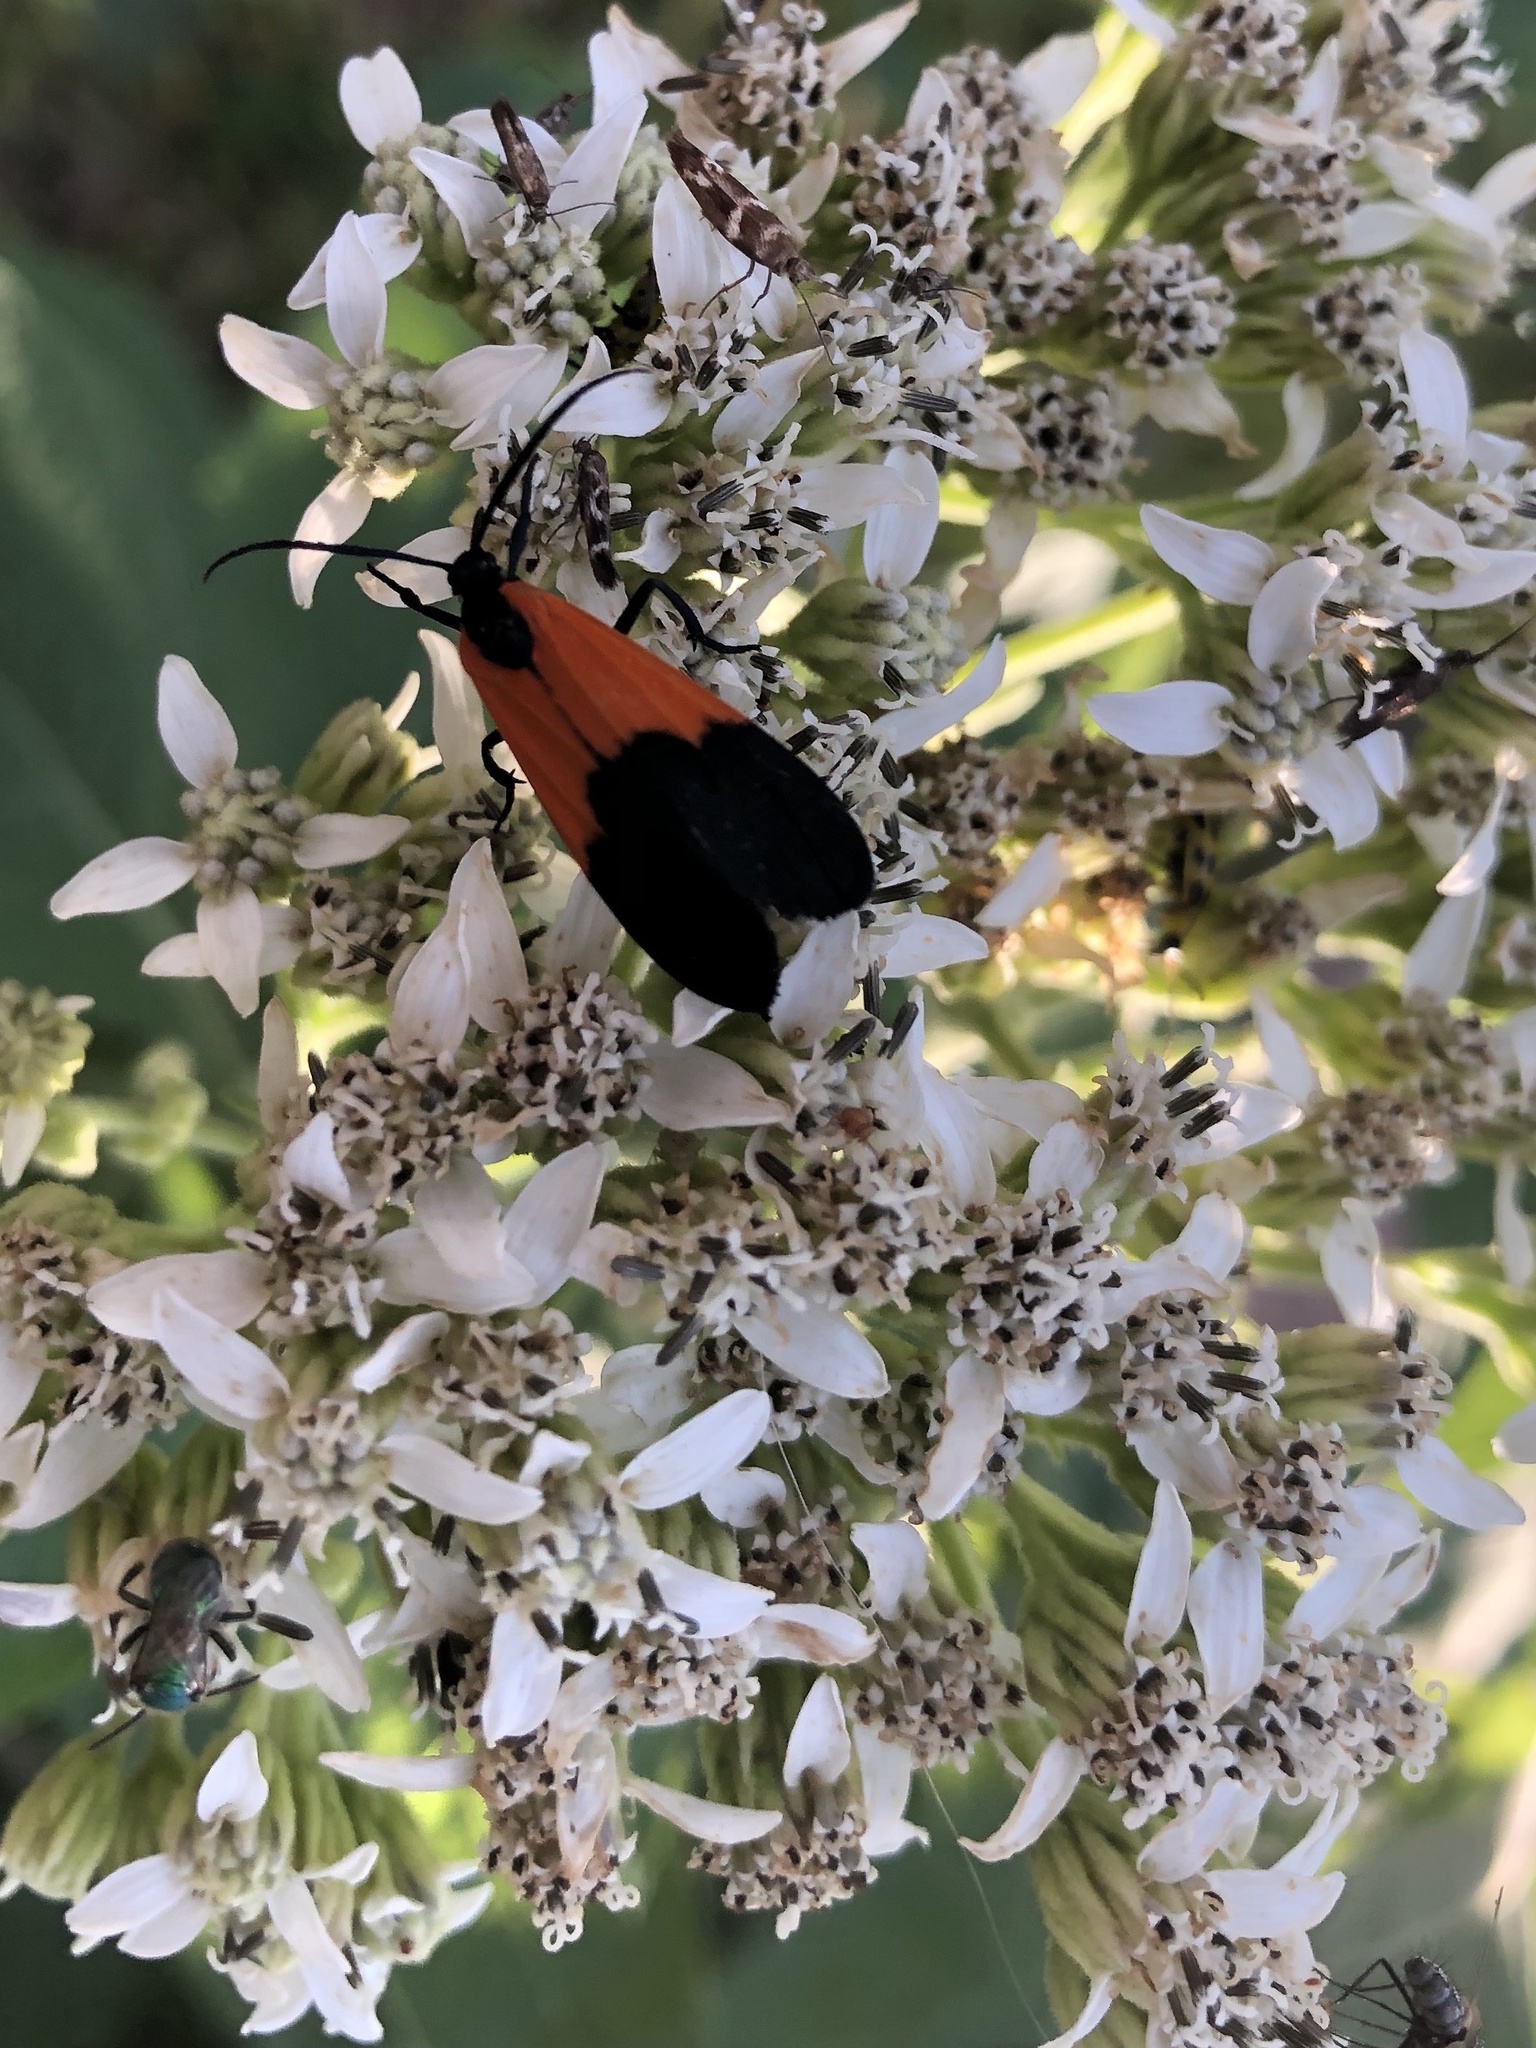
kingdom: Animalia
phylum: Arthropoda
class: Insecta
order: Lepidoptera
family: Erebidae
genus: Lycomorpha
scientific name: Lycomorpha pholus
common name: Black-and-yellow lichen moth
